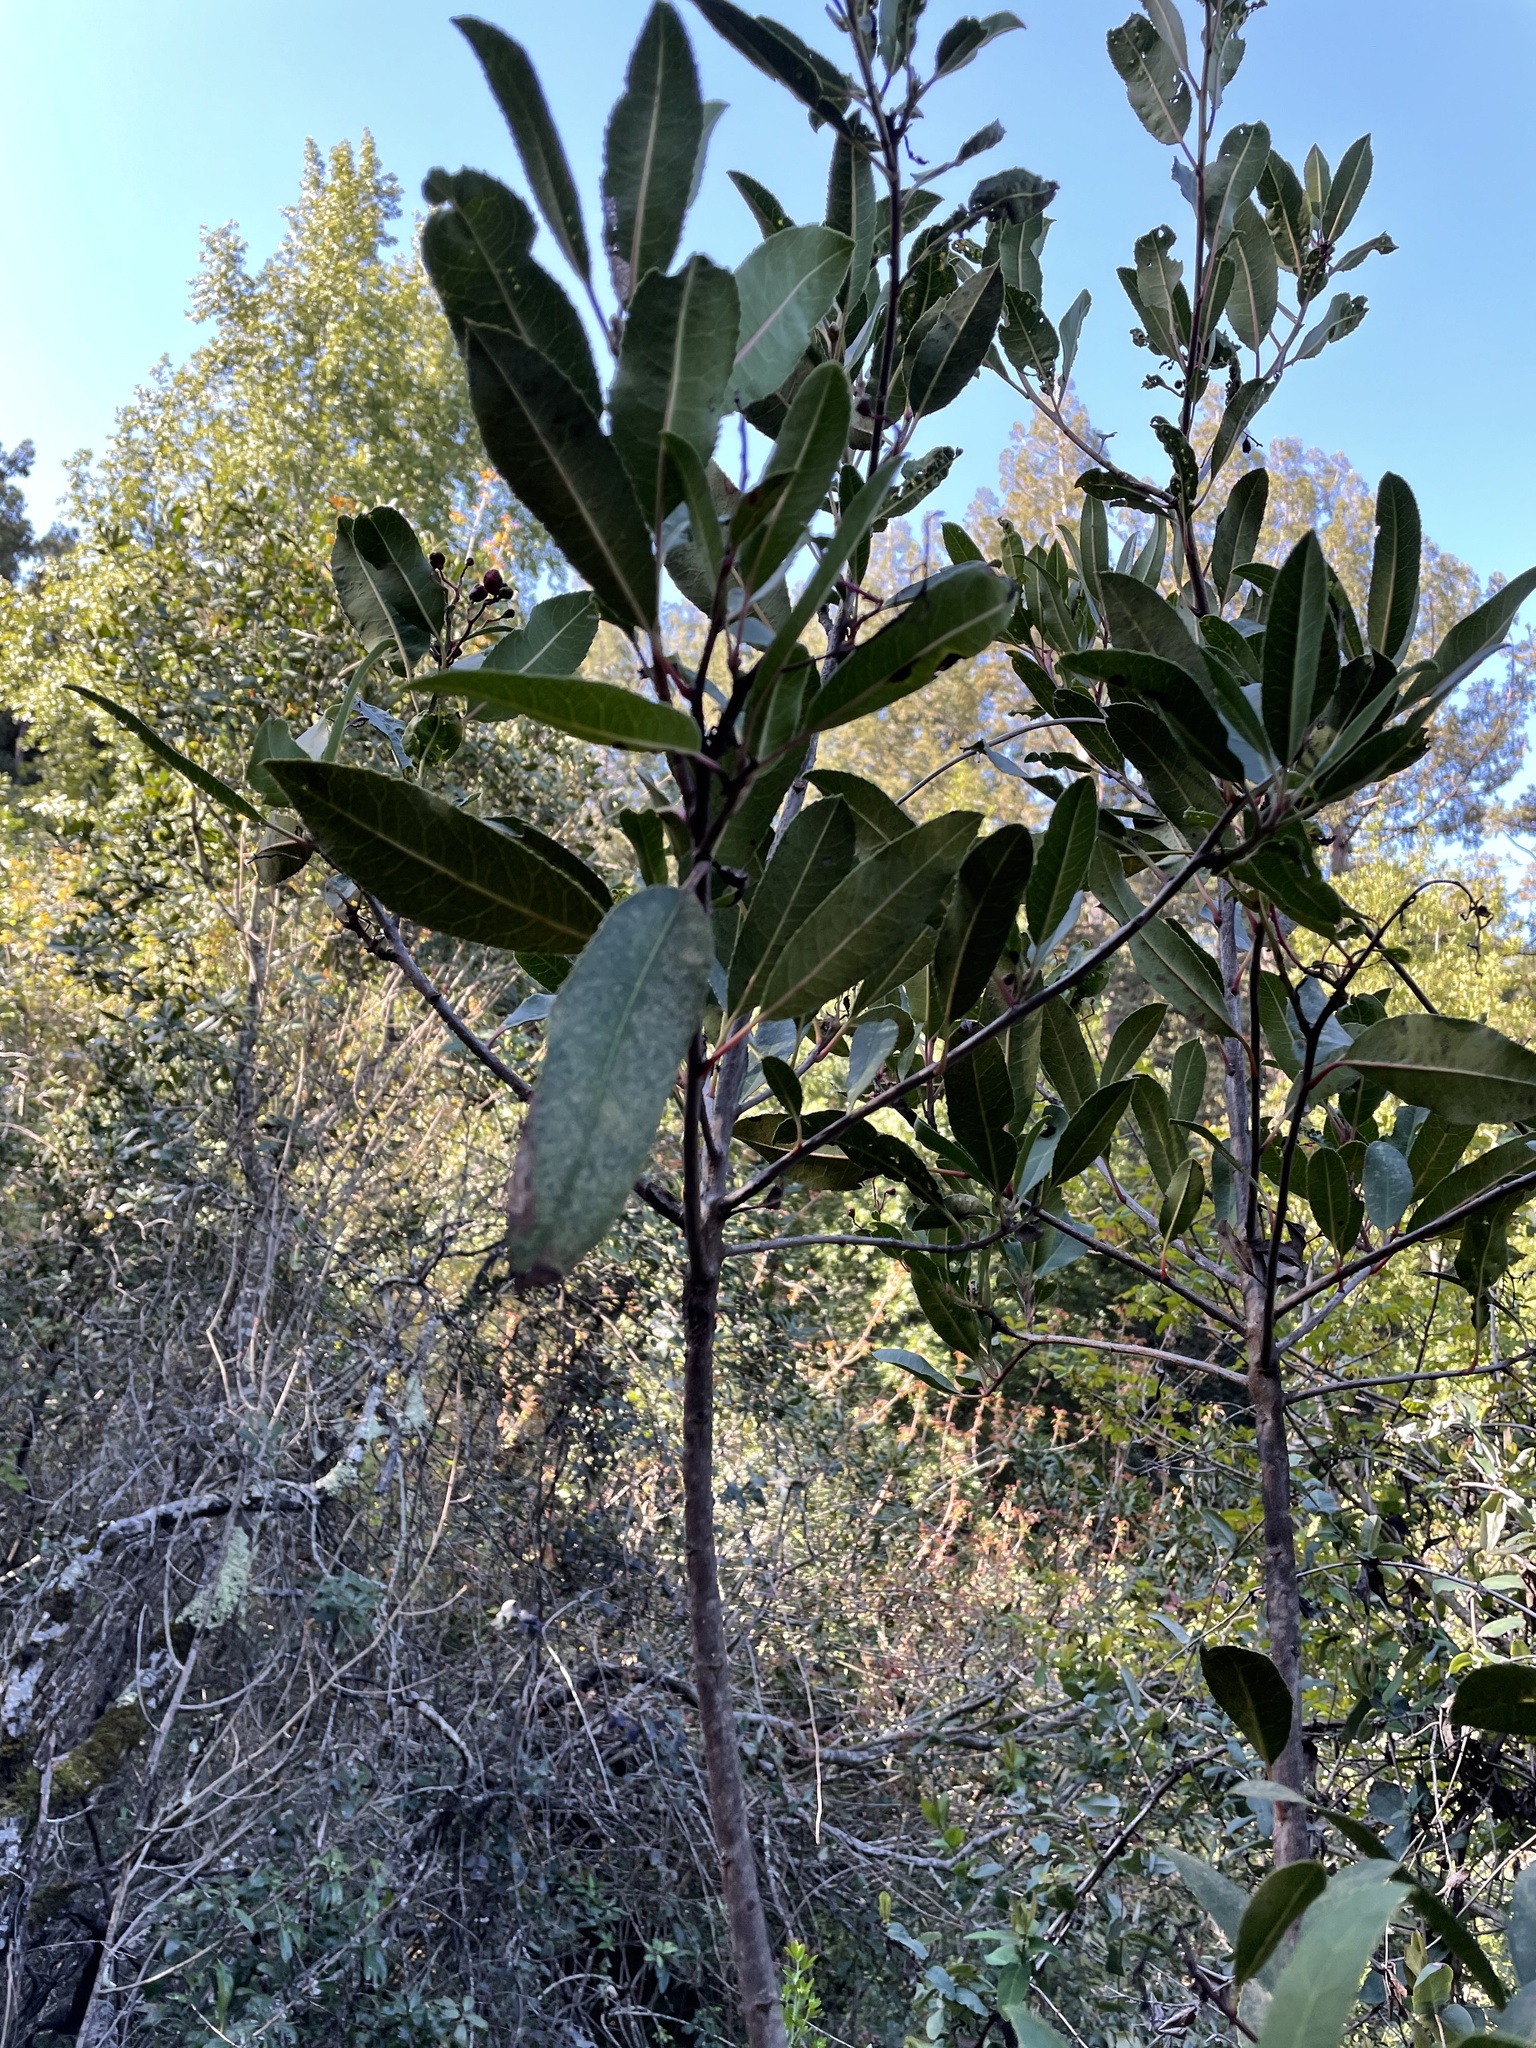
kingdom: Plantae
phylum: Tracheophyta
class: Magnoliopsida
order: Rosales
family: Rosaceae
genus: Heteromeles
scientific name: Heteromeles arbutifolia
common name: California-holly
